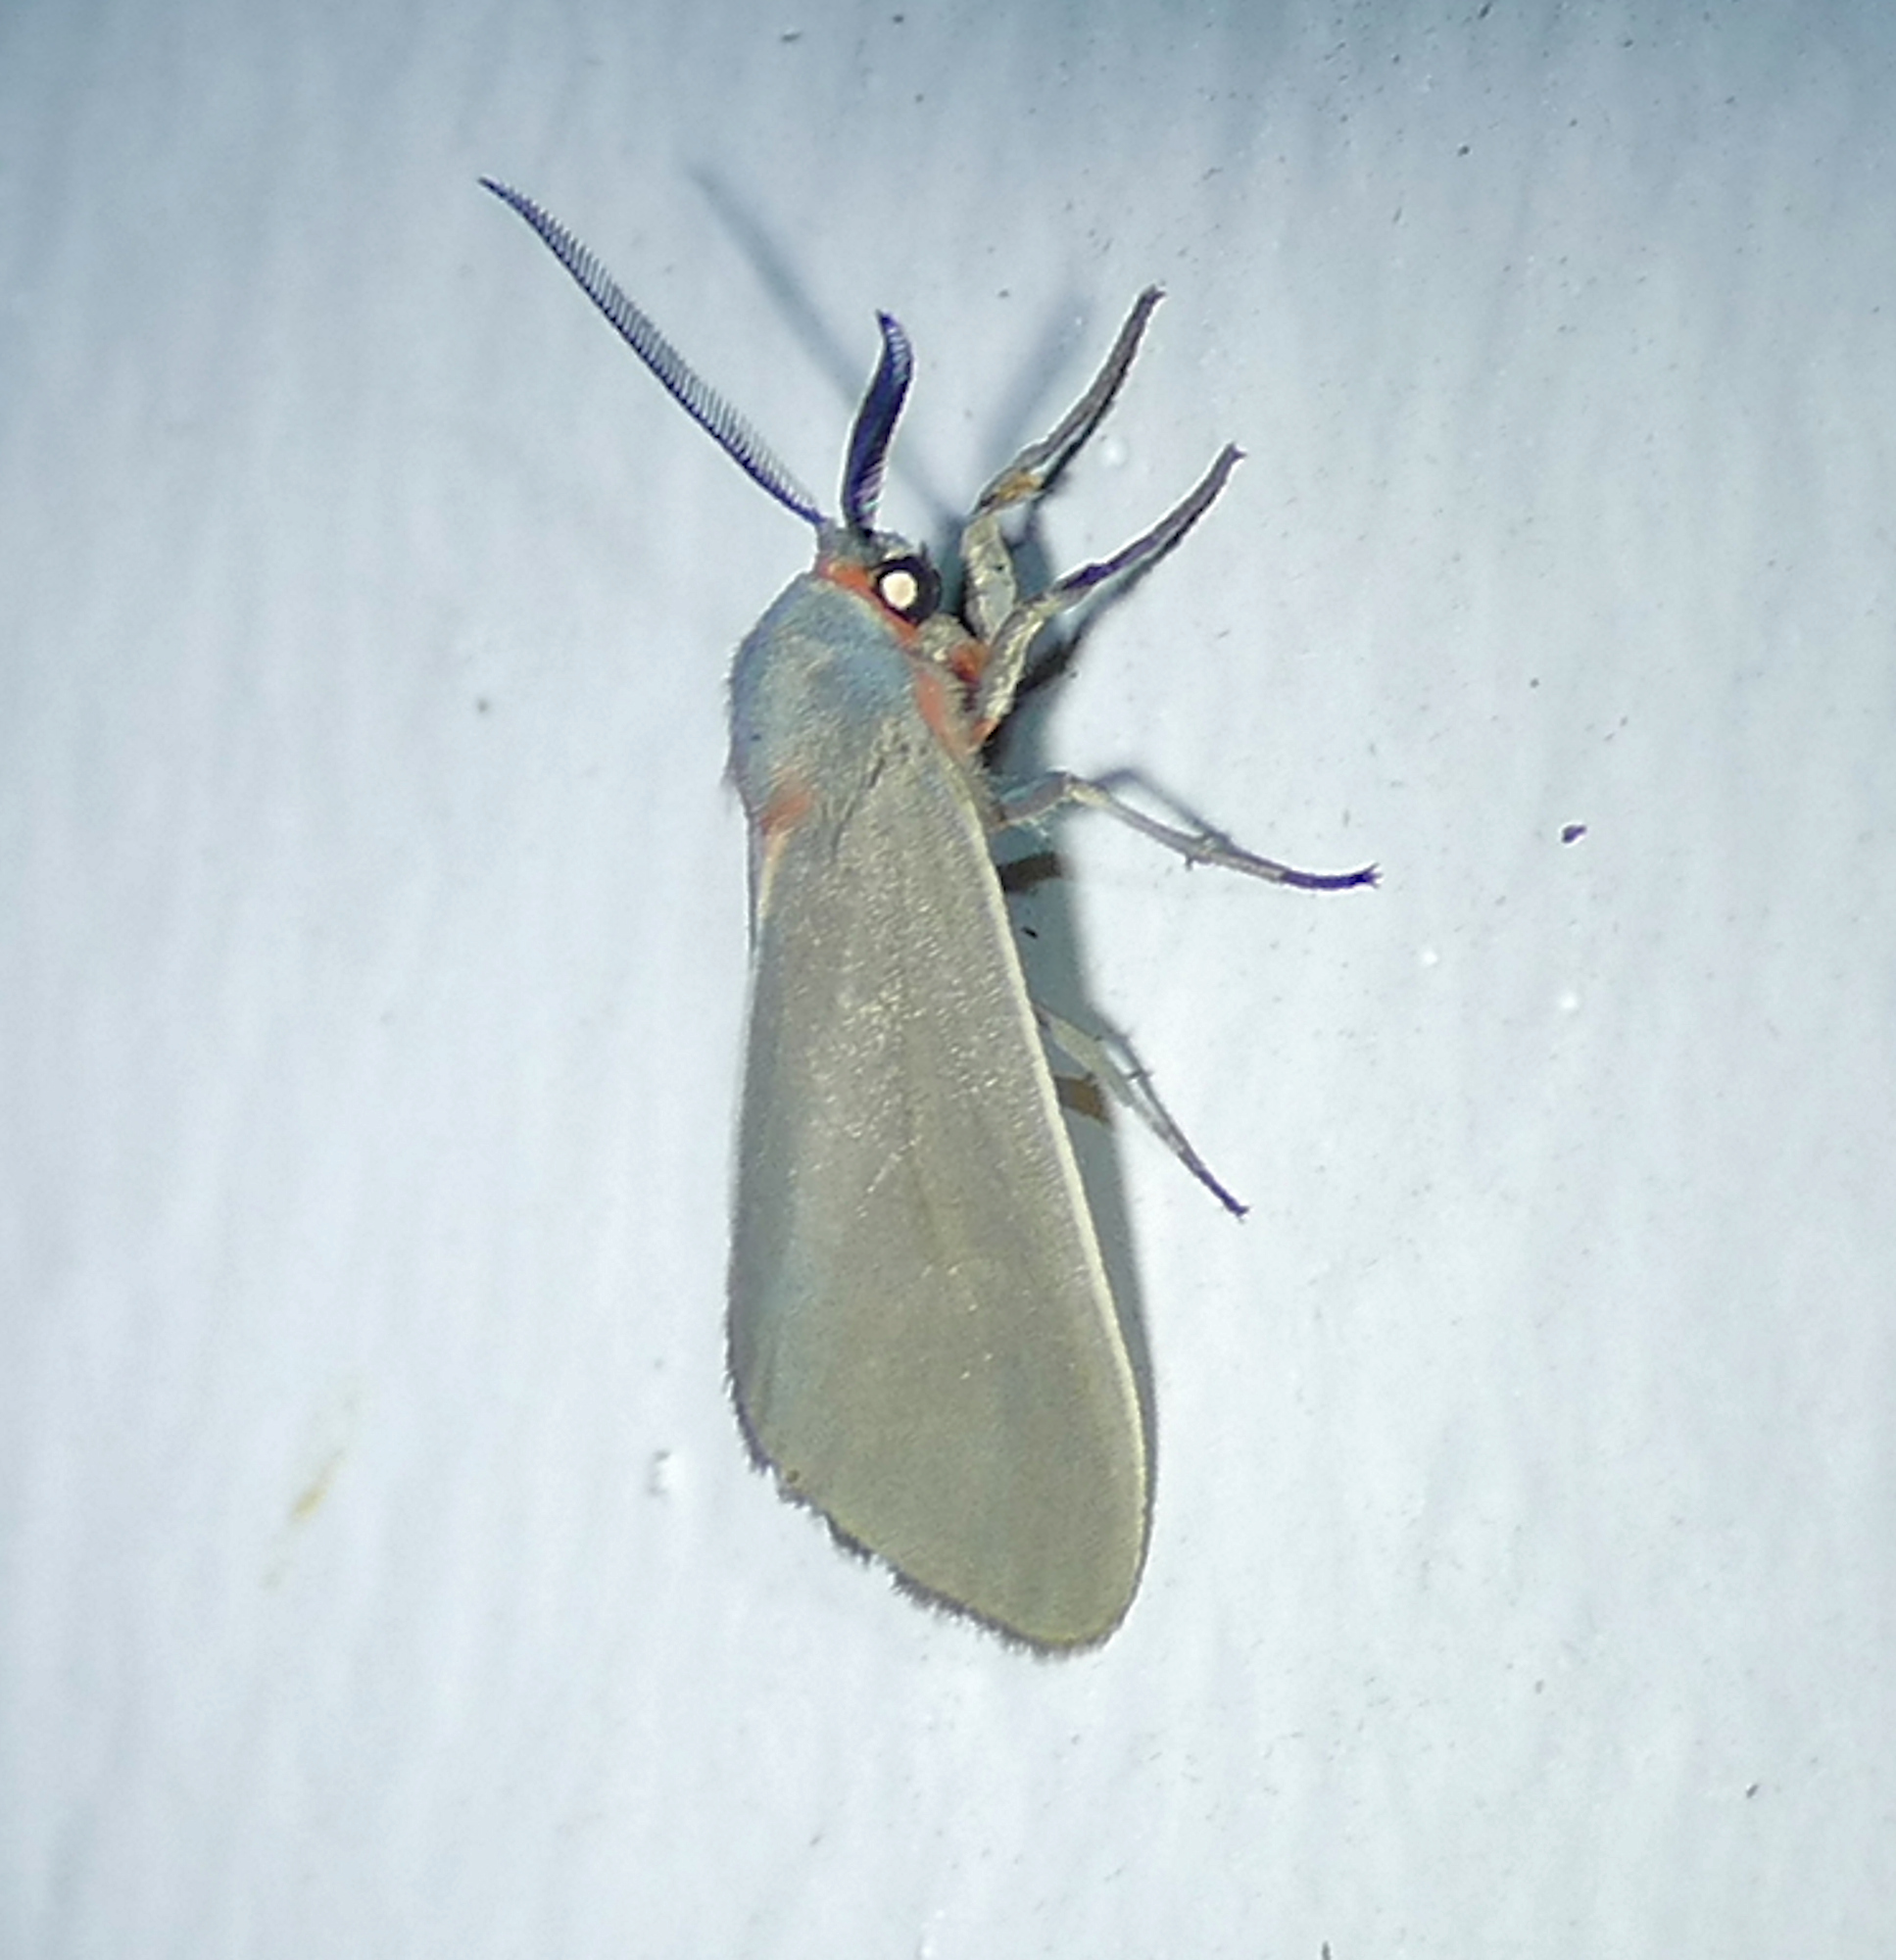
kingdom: Animalia
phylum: Arthropoda
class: Insecta
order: Lepidoptera
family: Erebidae
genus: Pygarctia
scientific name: Pygarctia murina
